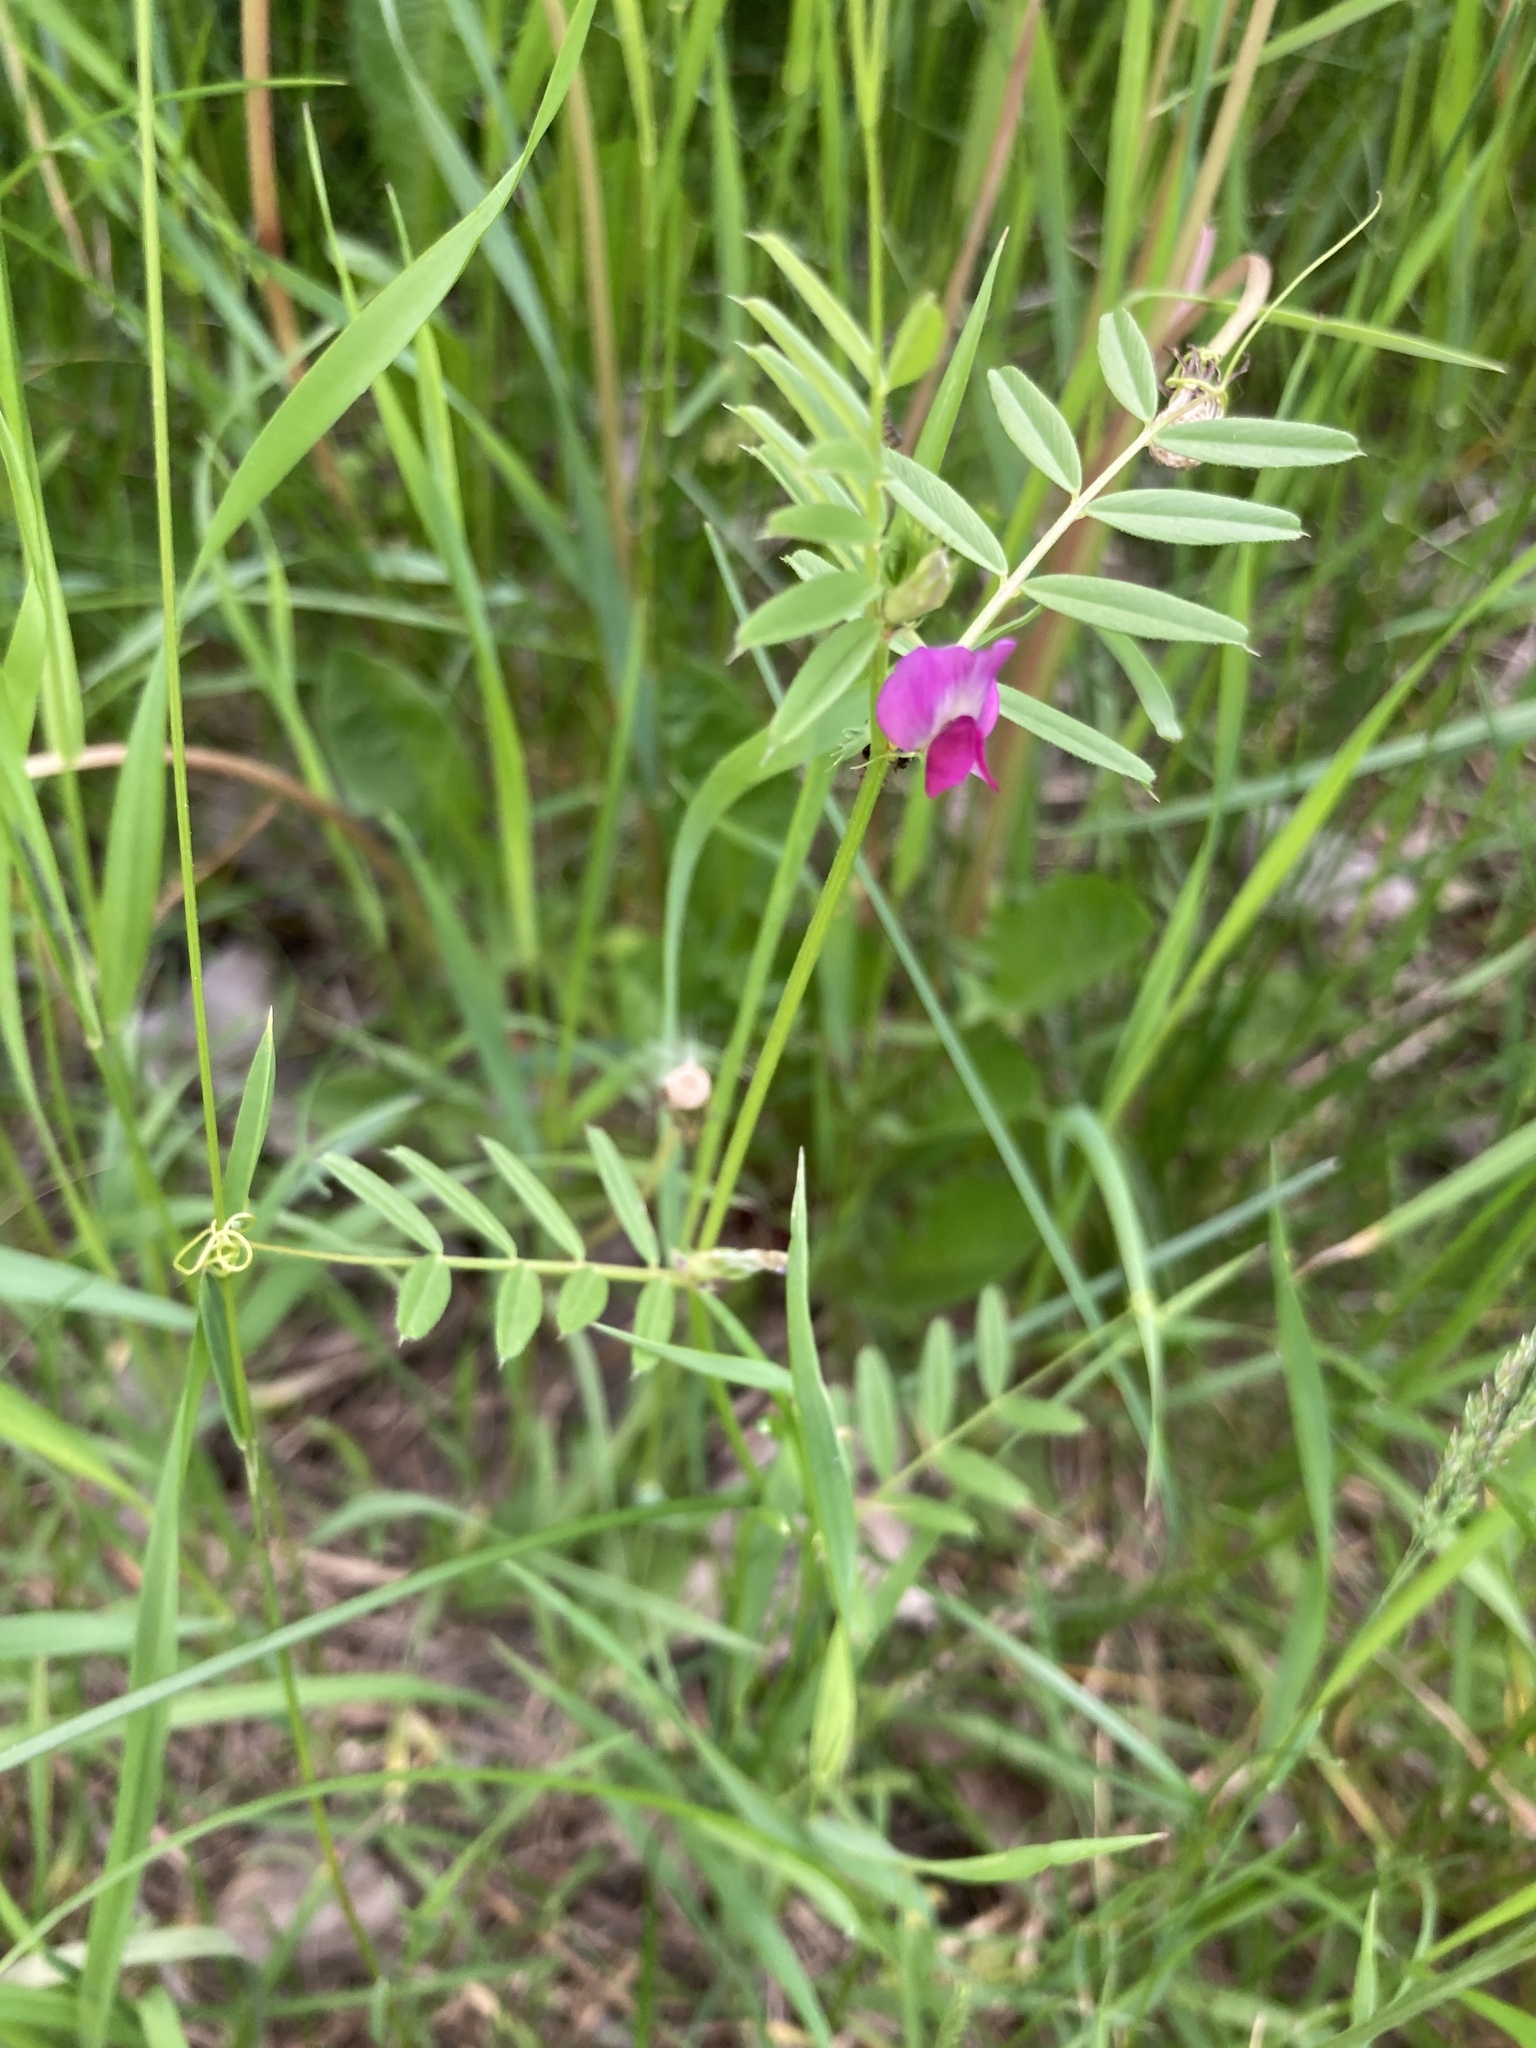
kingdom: Plantae
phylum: Tracheophyta
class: Magnoliopsida
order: Fabales
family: Fabaceae
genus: Vicia
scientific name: Vicia sativa
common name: Garden vetch
